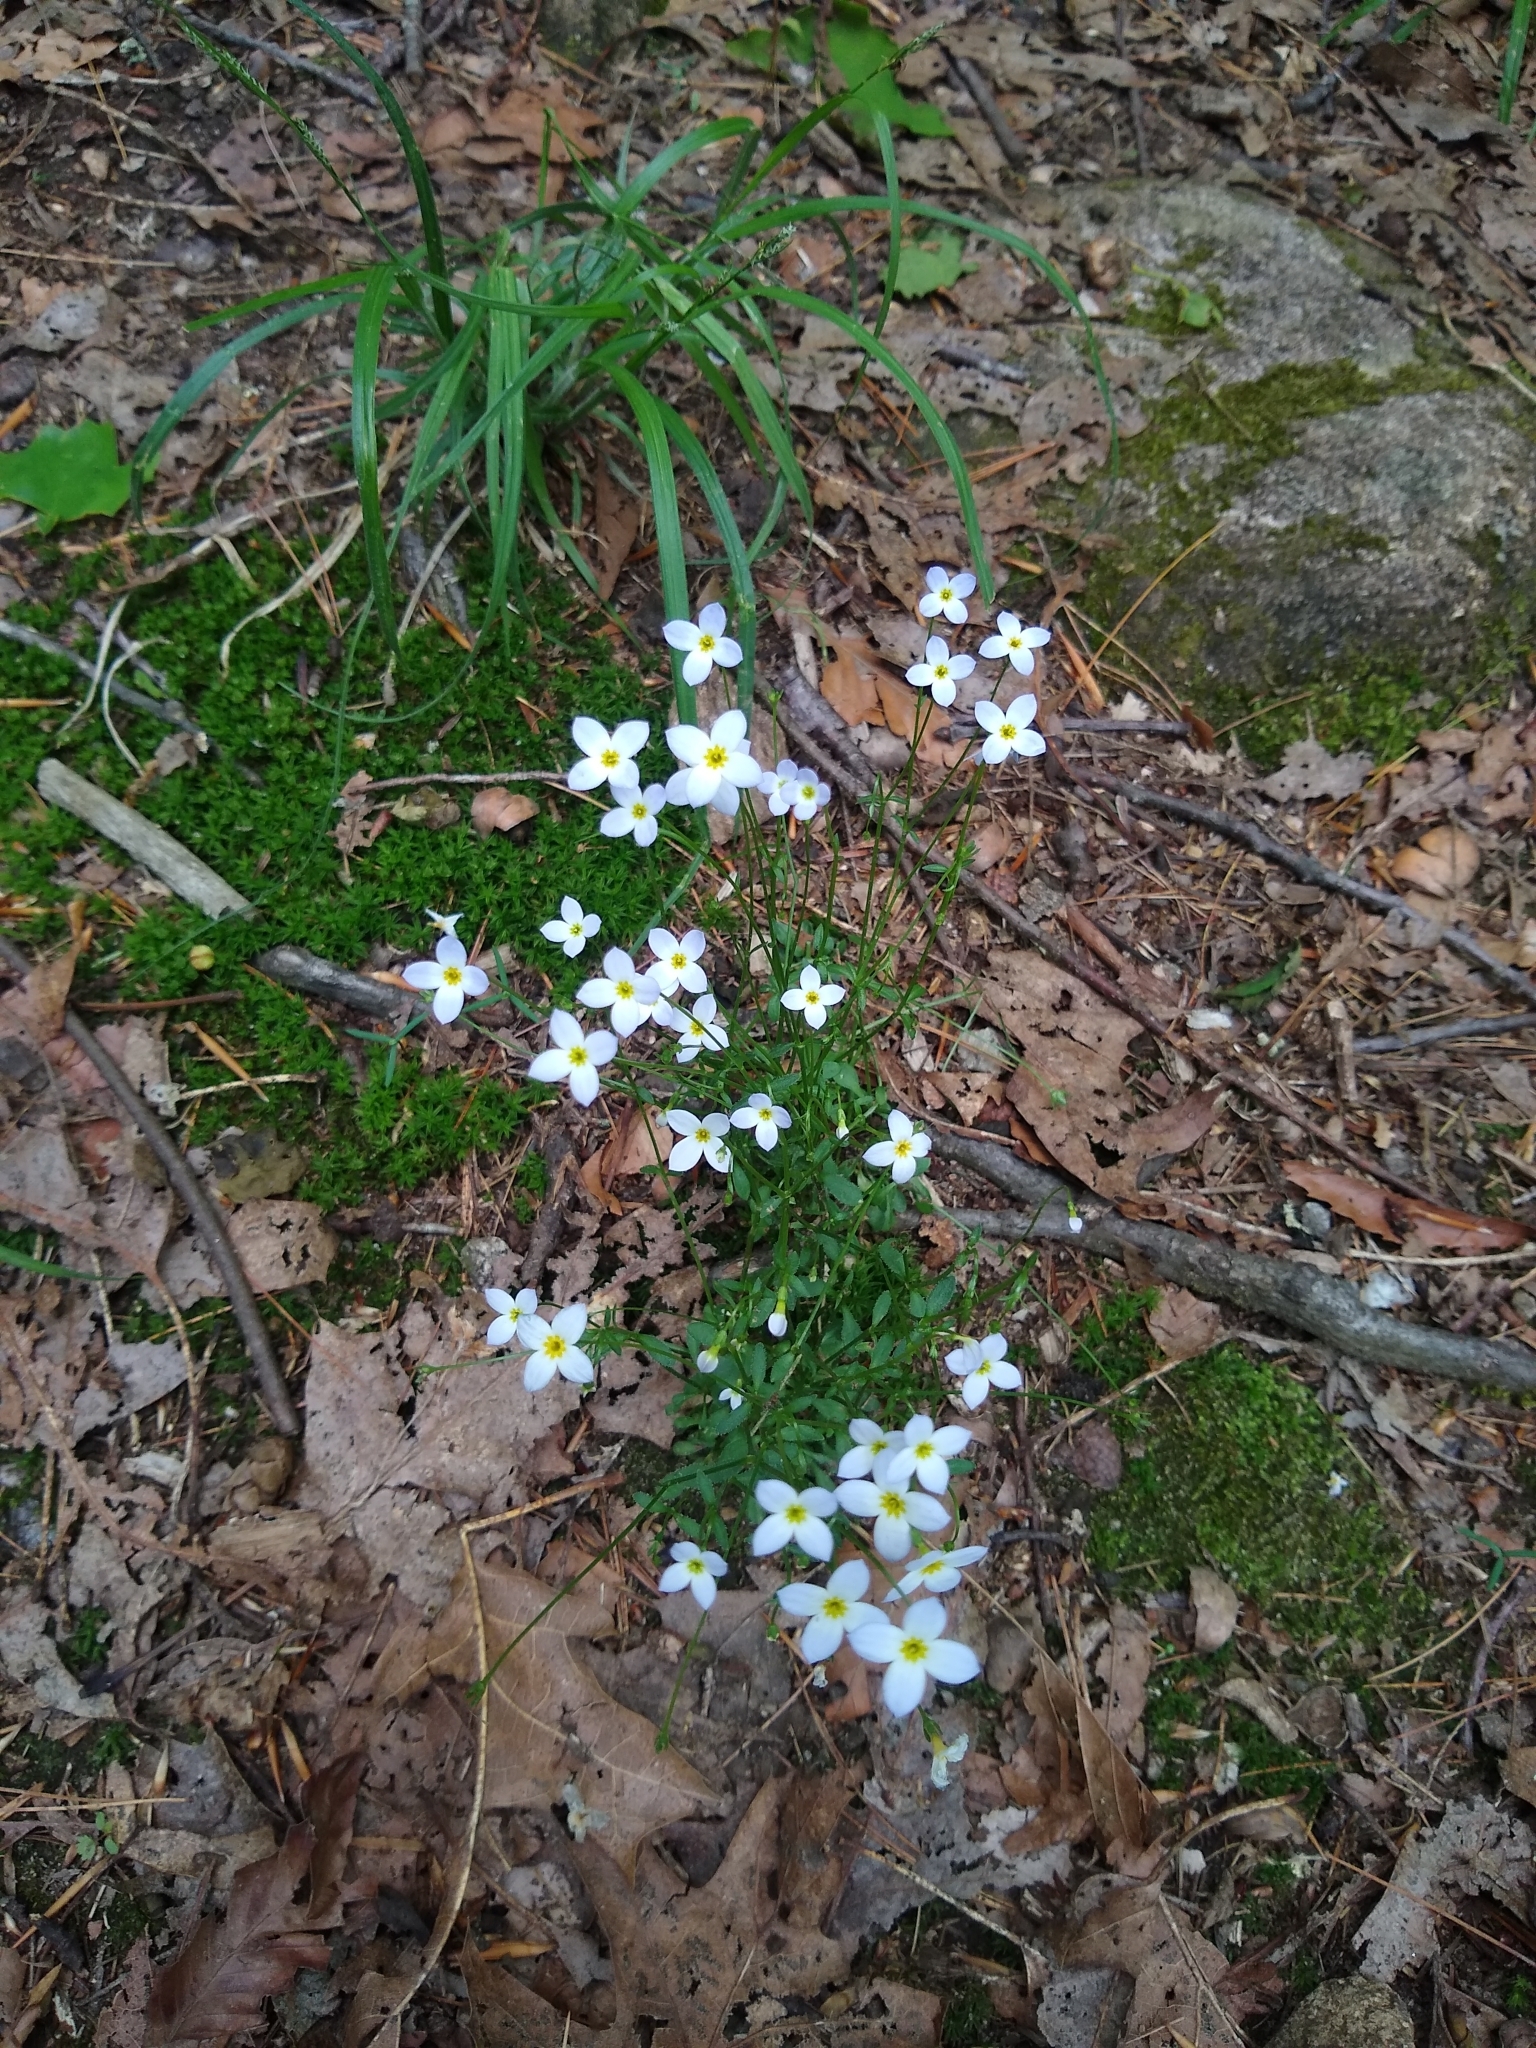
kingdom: Plantae
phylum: Tracheophyta
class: Magnoliopsida
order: Gentianales
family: Rubiaceae
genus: Houstonia
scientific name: Houstonia caerulea
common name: Bluets
